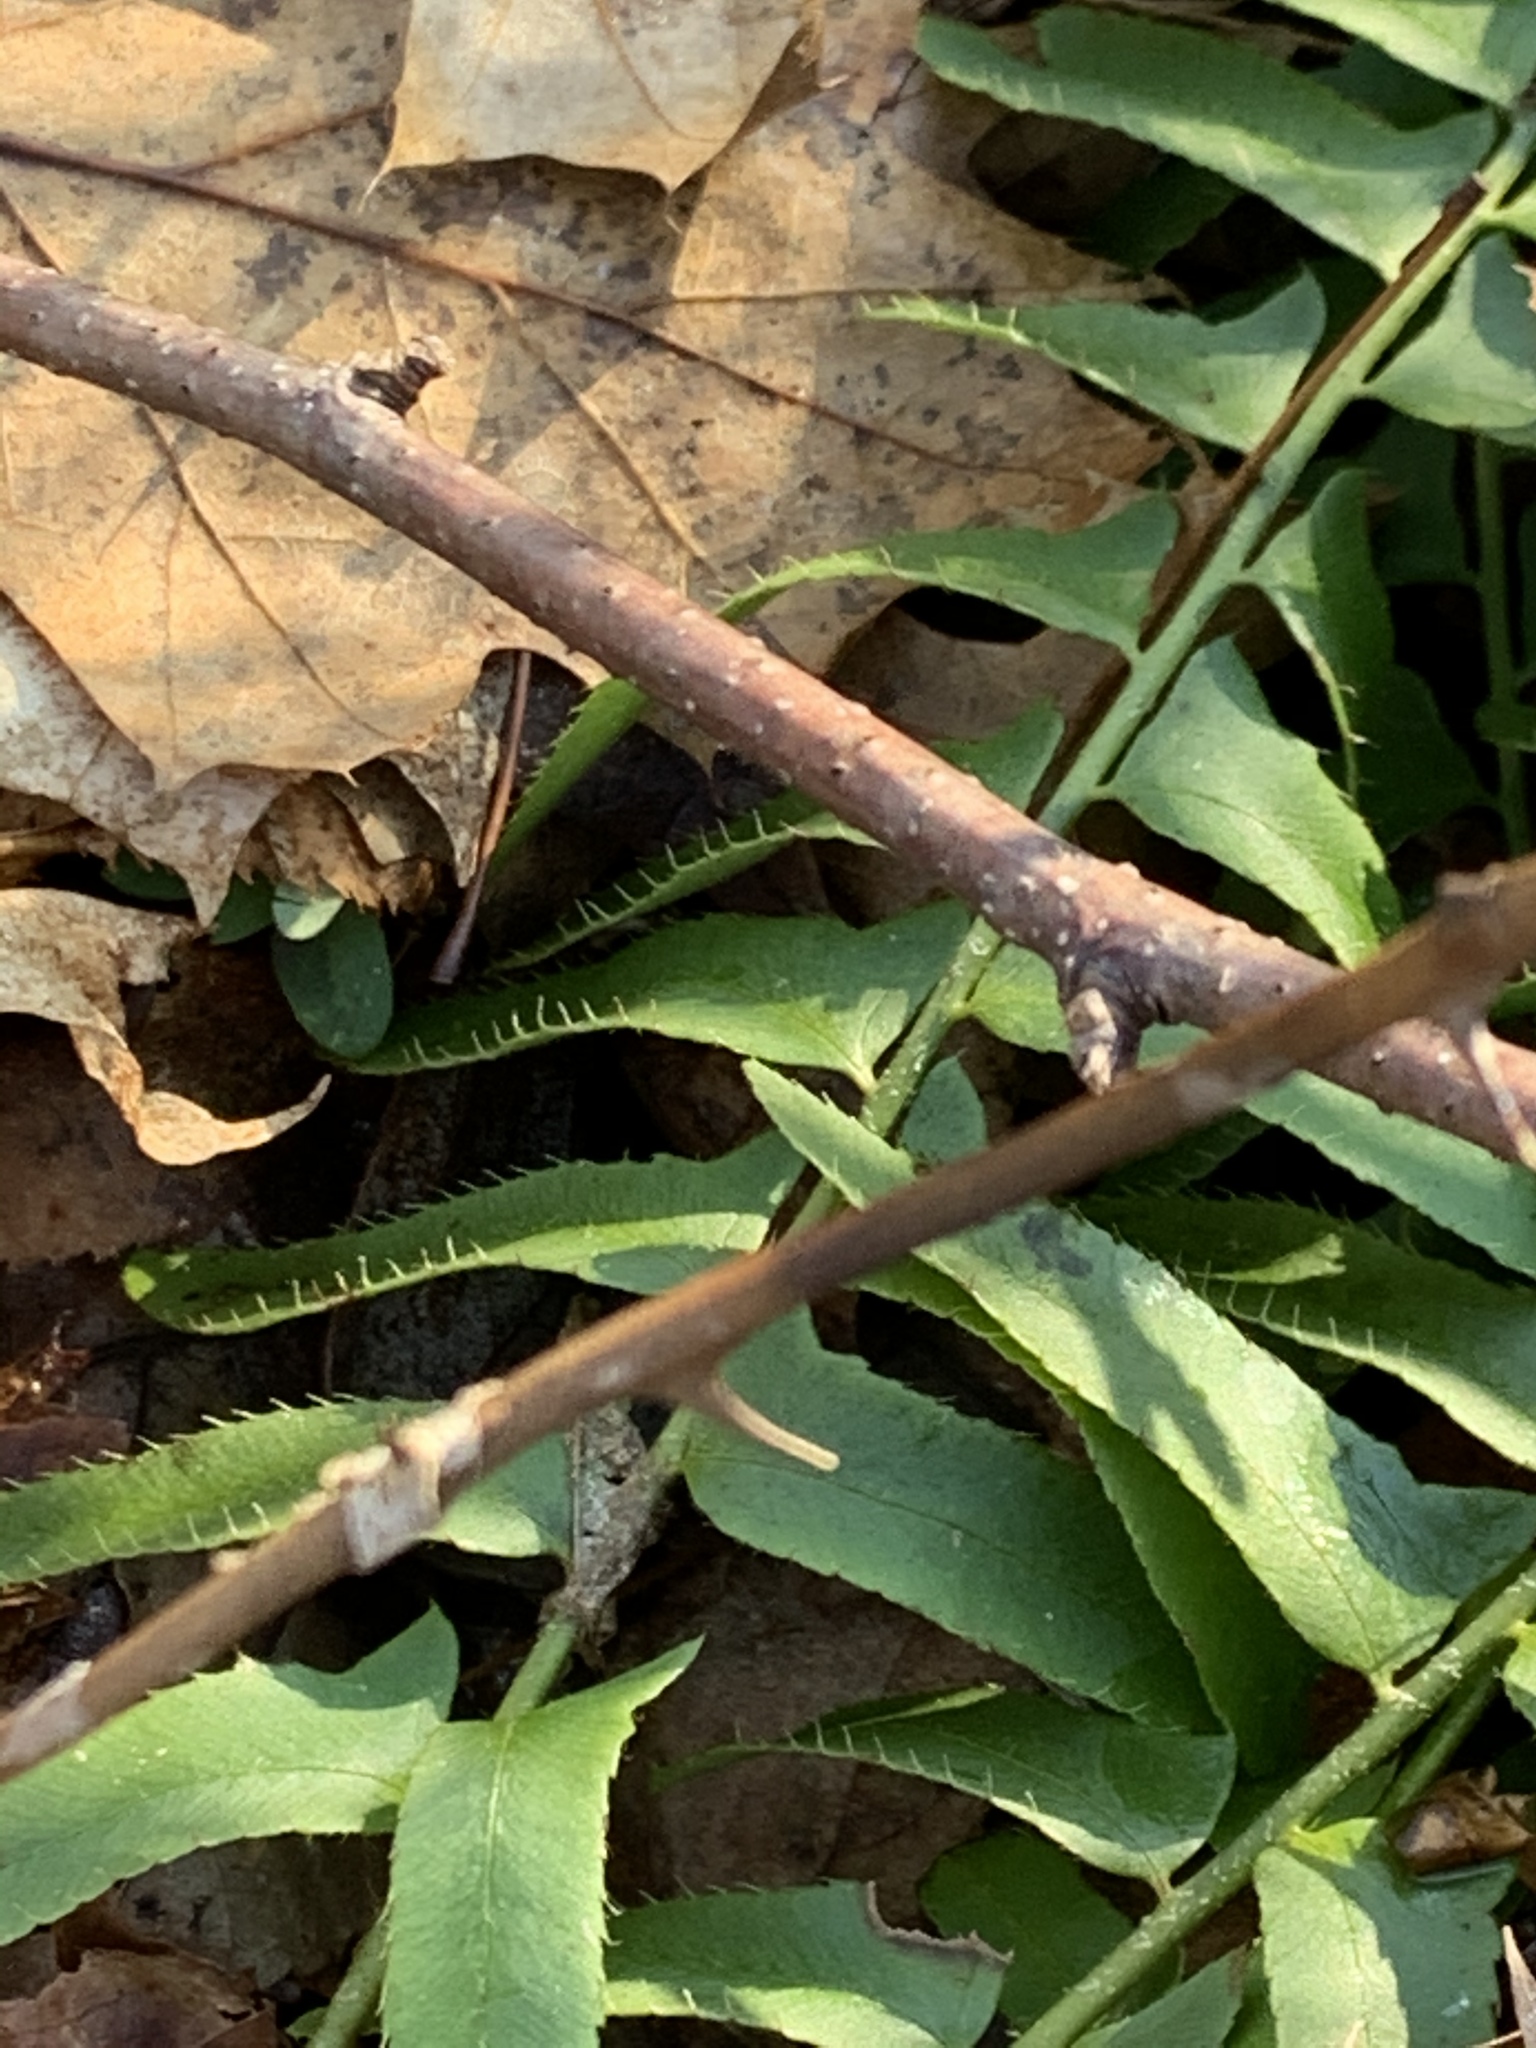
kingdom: Plantae
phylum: Tracheophyta
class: Polypodiopsida
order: Polypodiales
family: Dryopteridaceae
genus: Polystichum
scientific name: Polystichum acrostichoides
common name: Christmas fern
